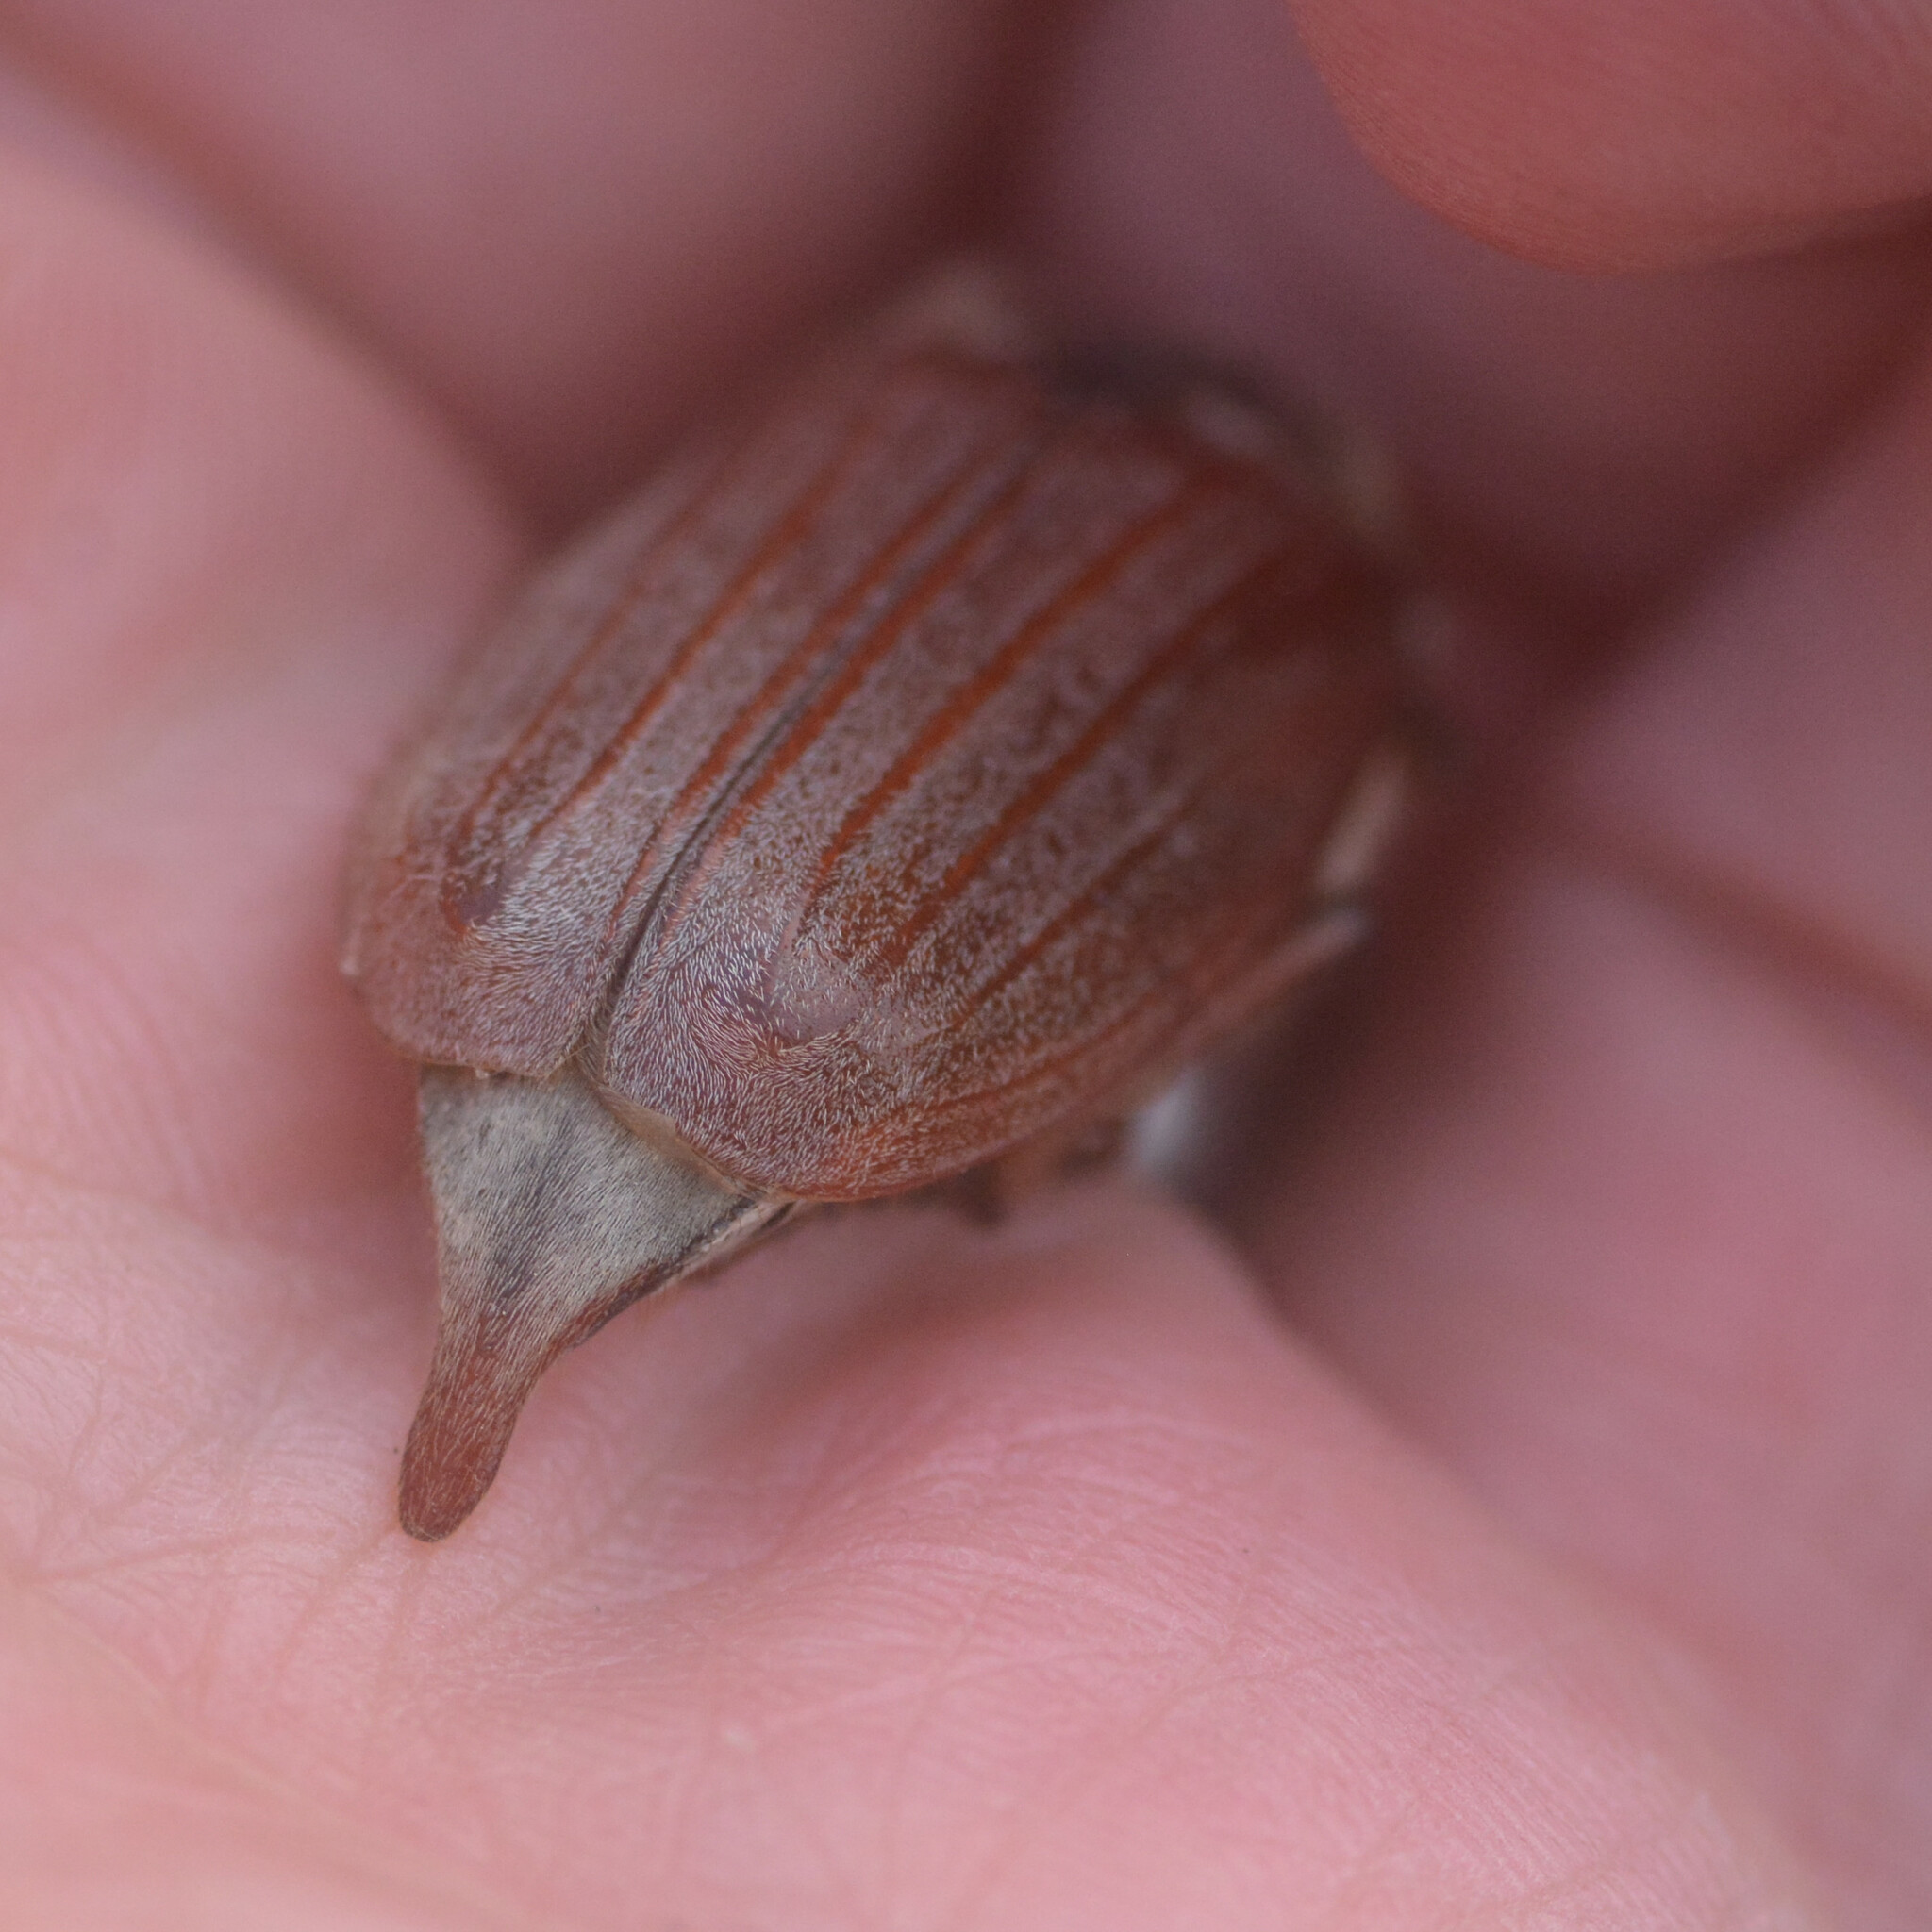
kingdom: Animalia
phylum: Arthropoda
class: Insecta
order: Coleoptera
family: Scarabaeidae
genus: Melolontha
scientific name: Melolontha melolontha
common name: Cockchafer maybeetle
